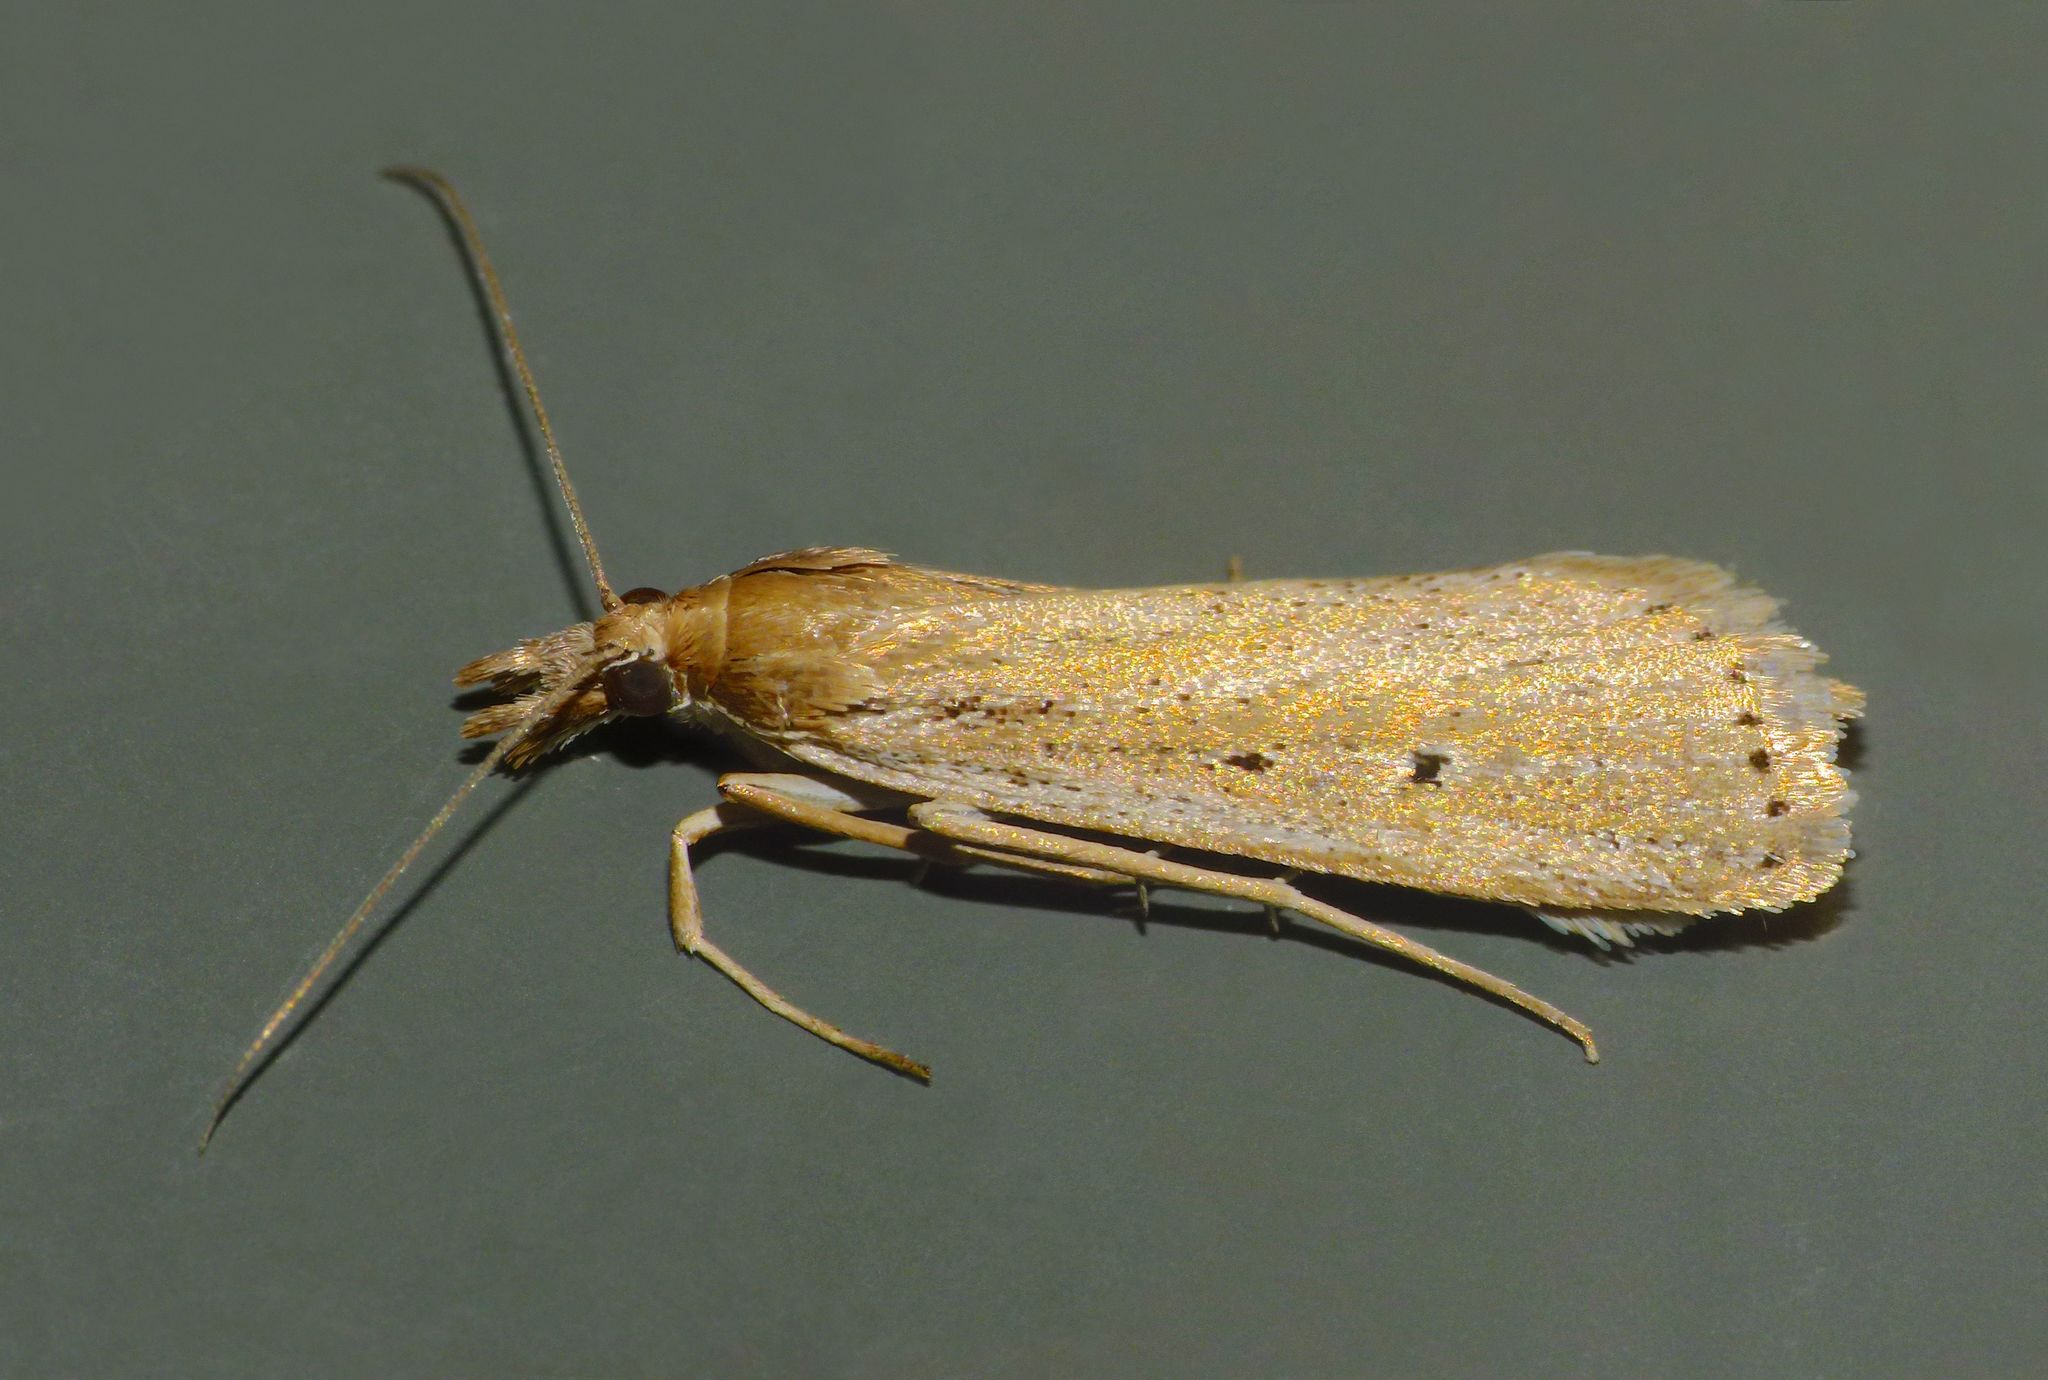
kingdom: Animalia
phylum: Arthropoda
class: Insecta
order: Lepidoptera
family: Crambidae
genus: Eudonia
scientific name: Eudonia sabulosella
